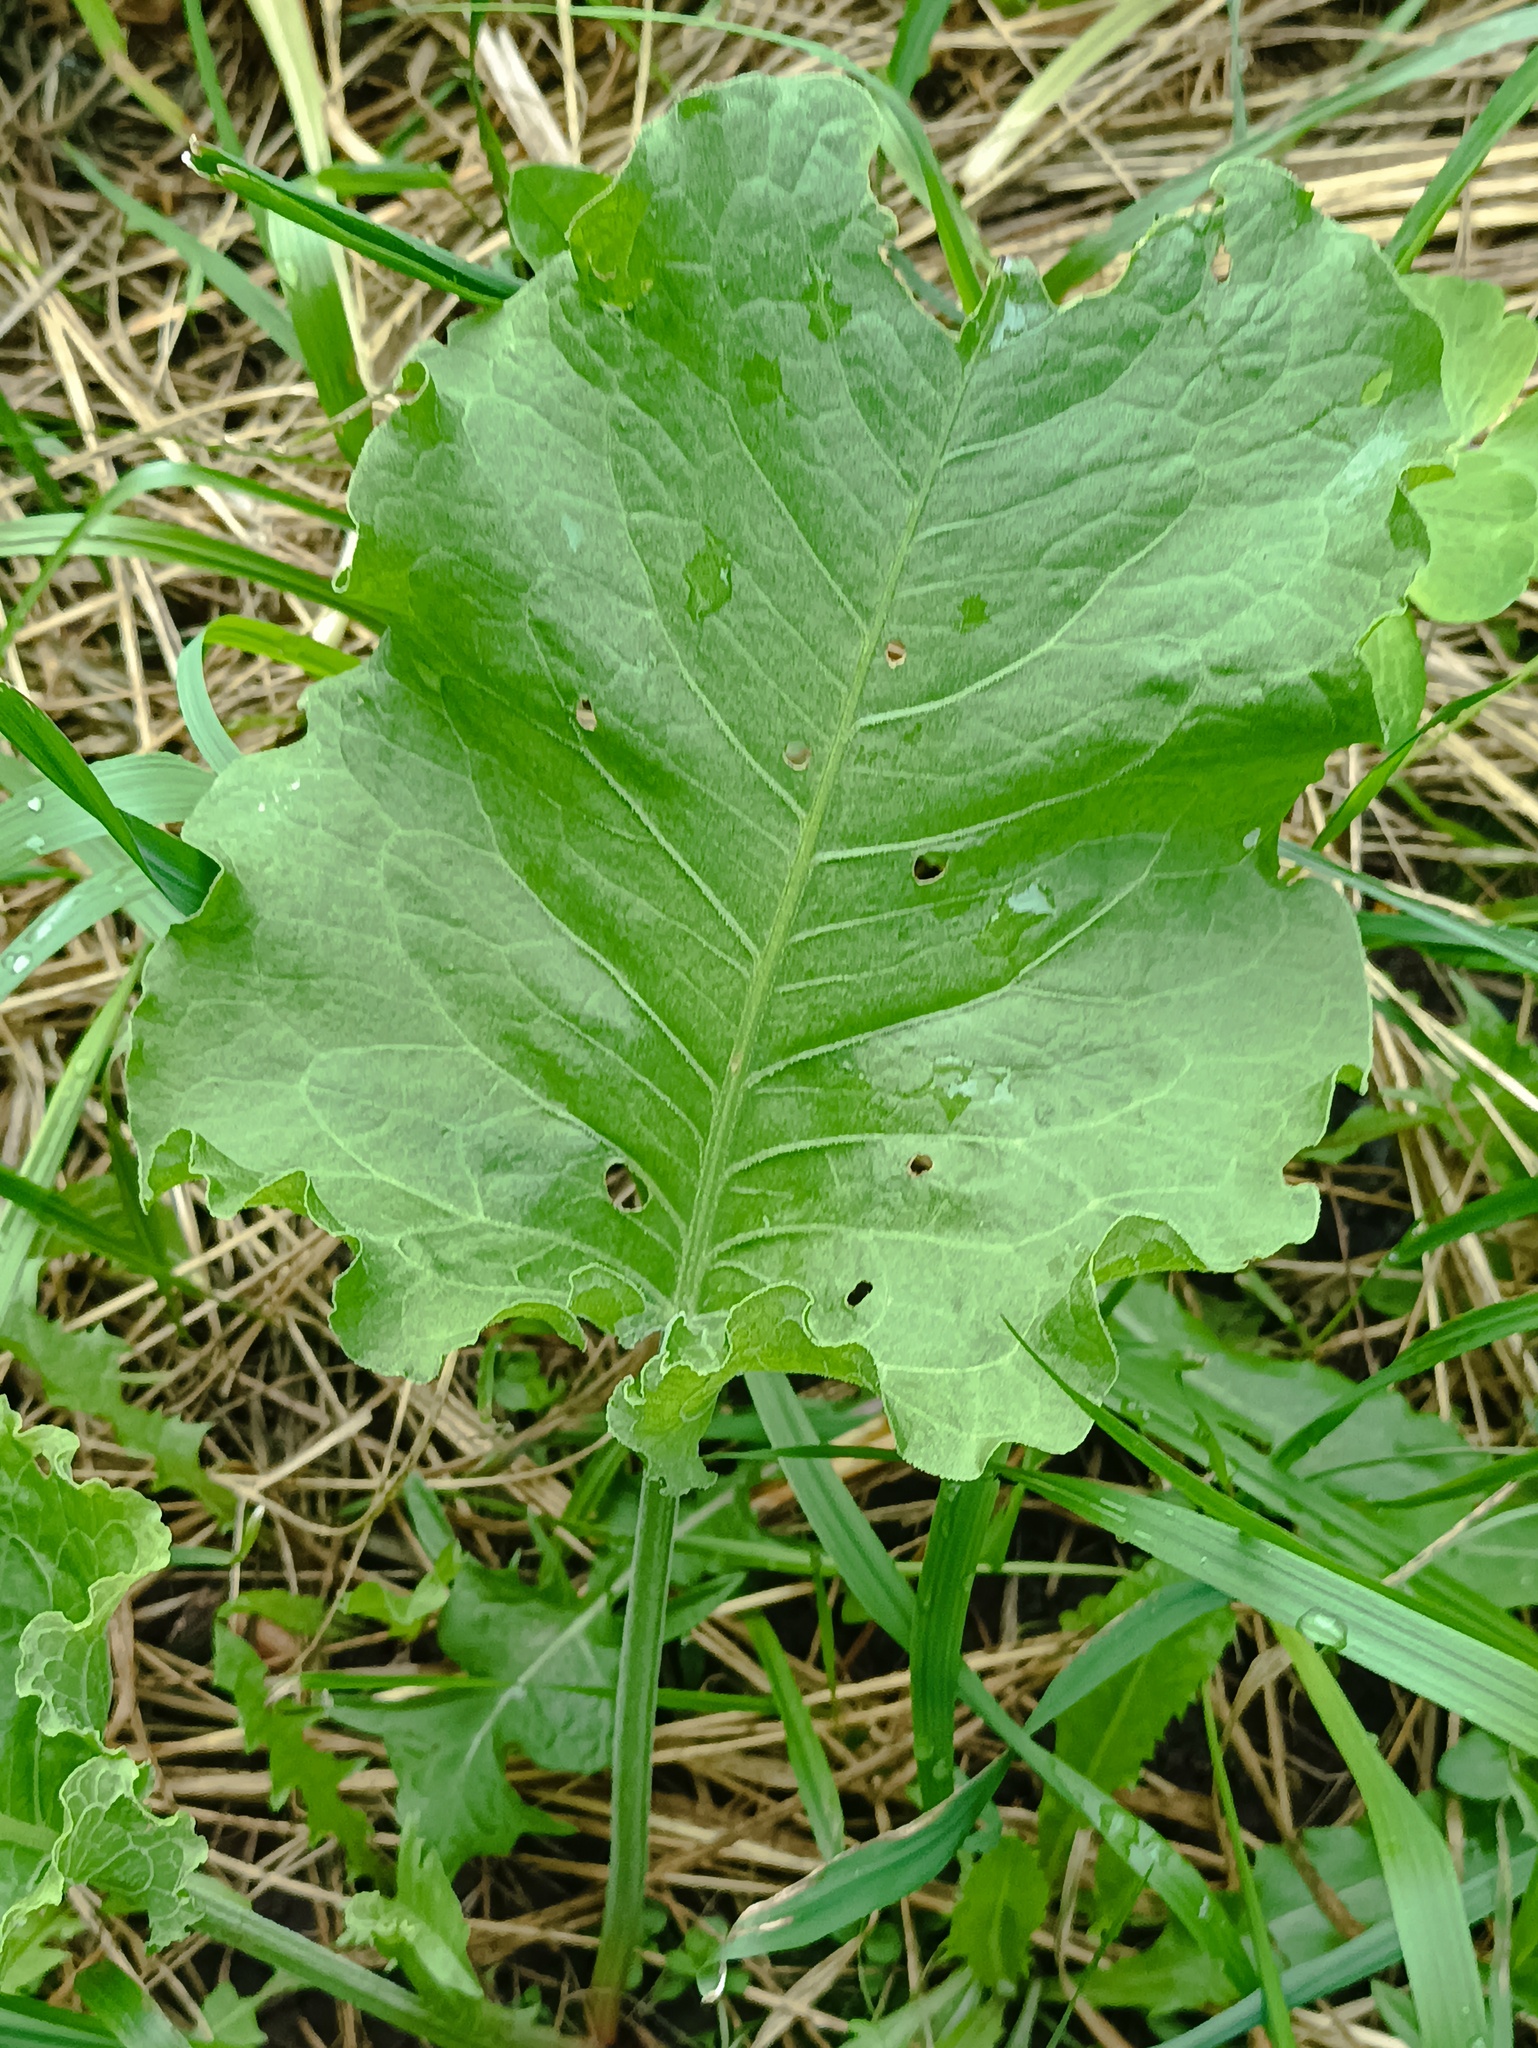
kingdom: Plantae
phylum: Tracheophyta
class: Magnoliopsida
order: Caryophyllales
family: Polygonaceae
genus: Rumex
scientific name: Rumex confertus
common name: Russian dock
